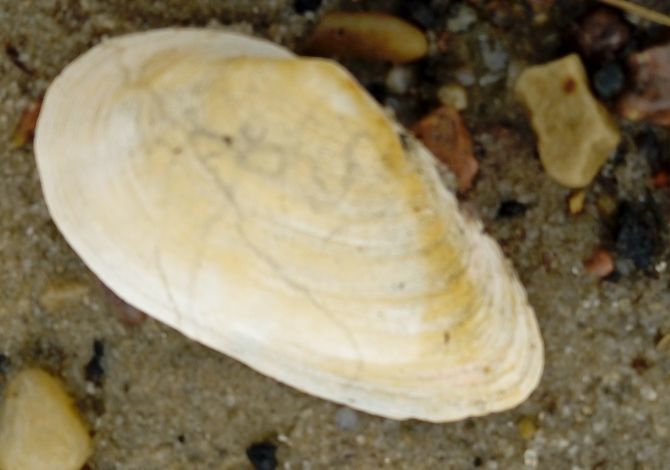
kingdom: Animalia
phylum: Mollusca
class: Bivalvia
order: Myida
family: Myidae
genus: Mya
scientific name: Mya arenaria
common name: Soft-shelled clam
